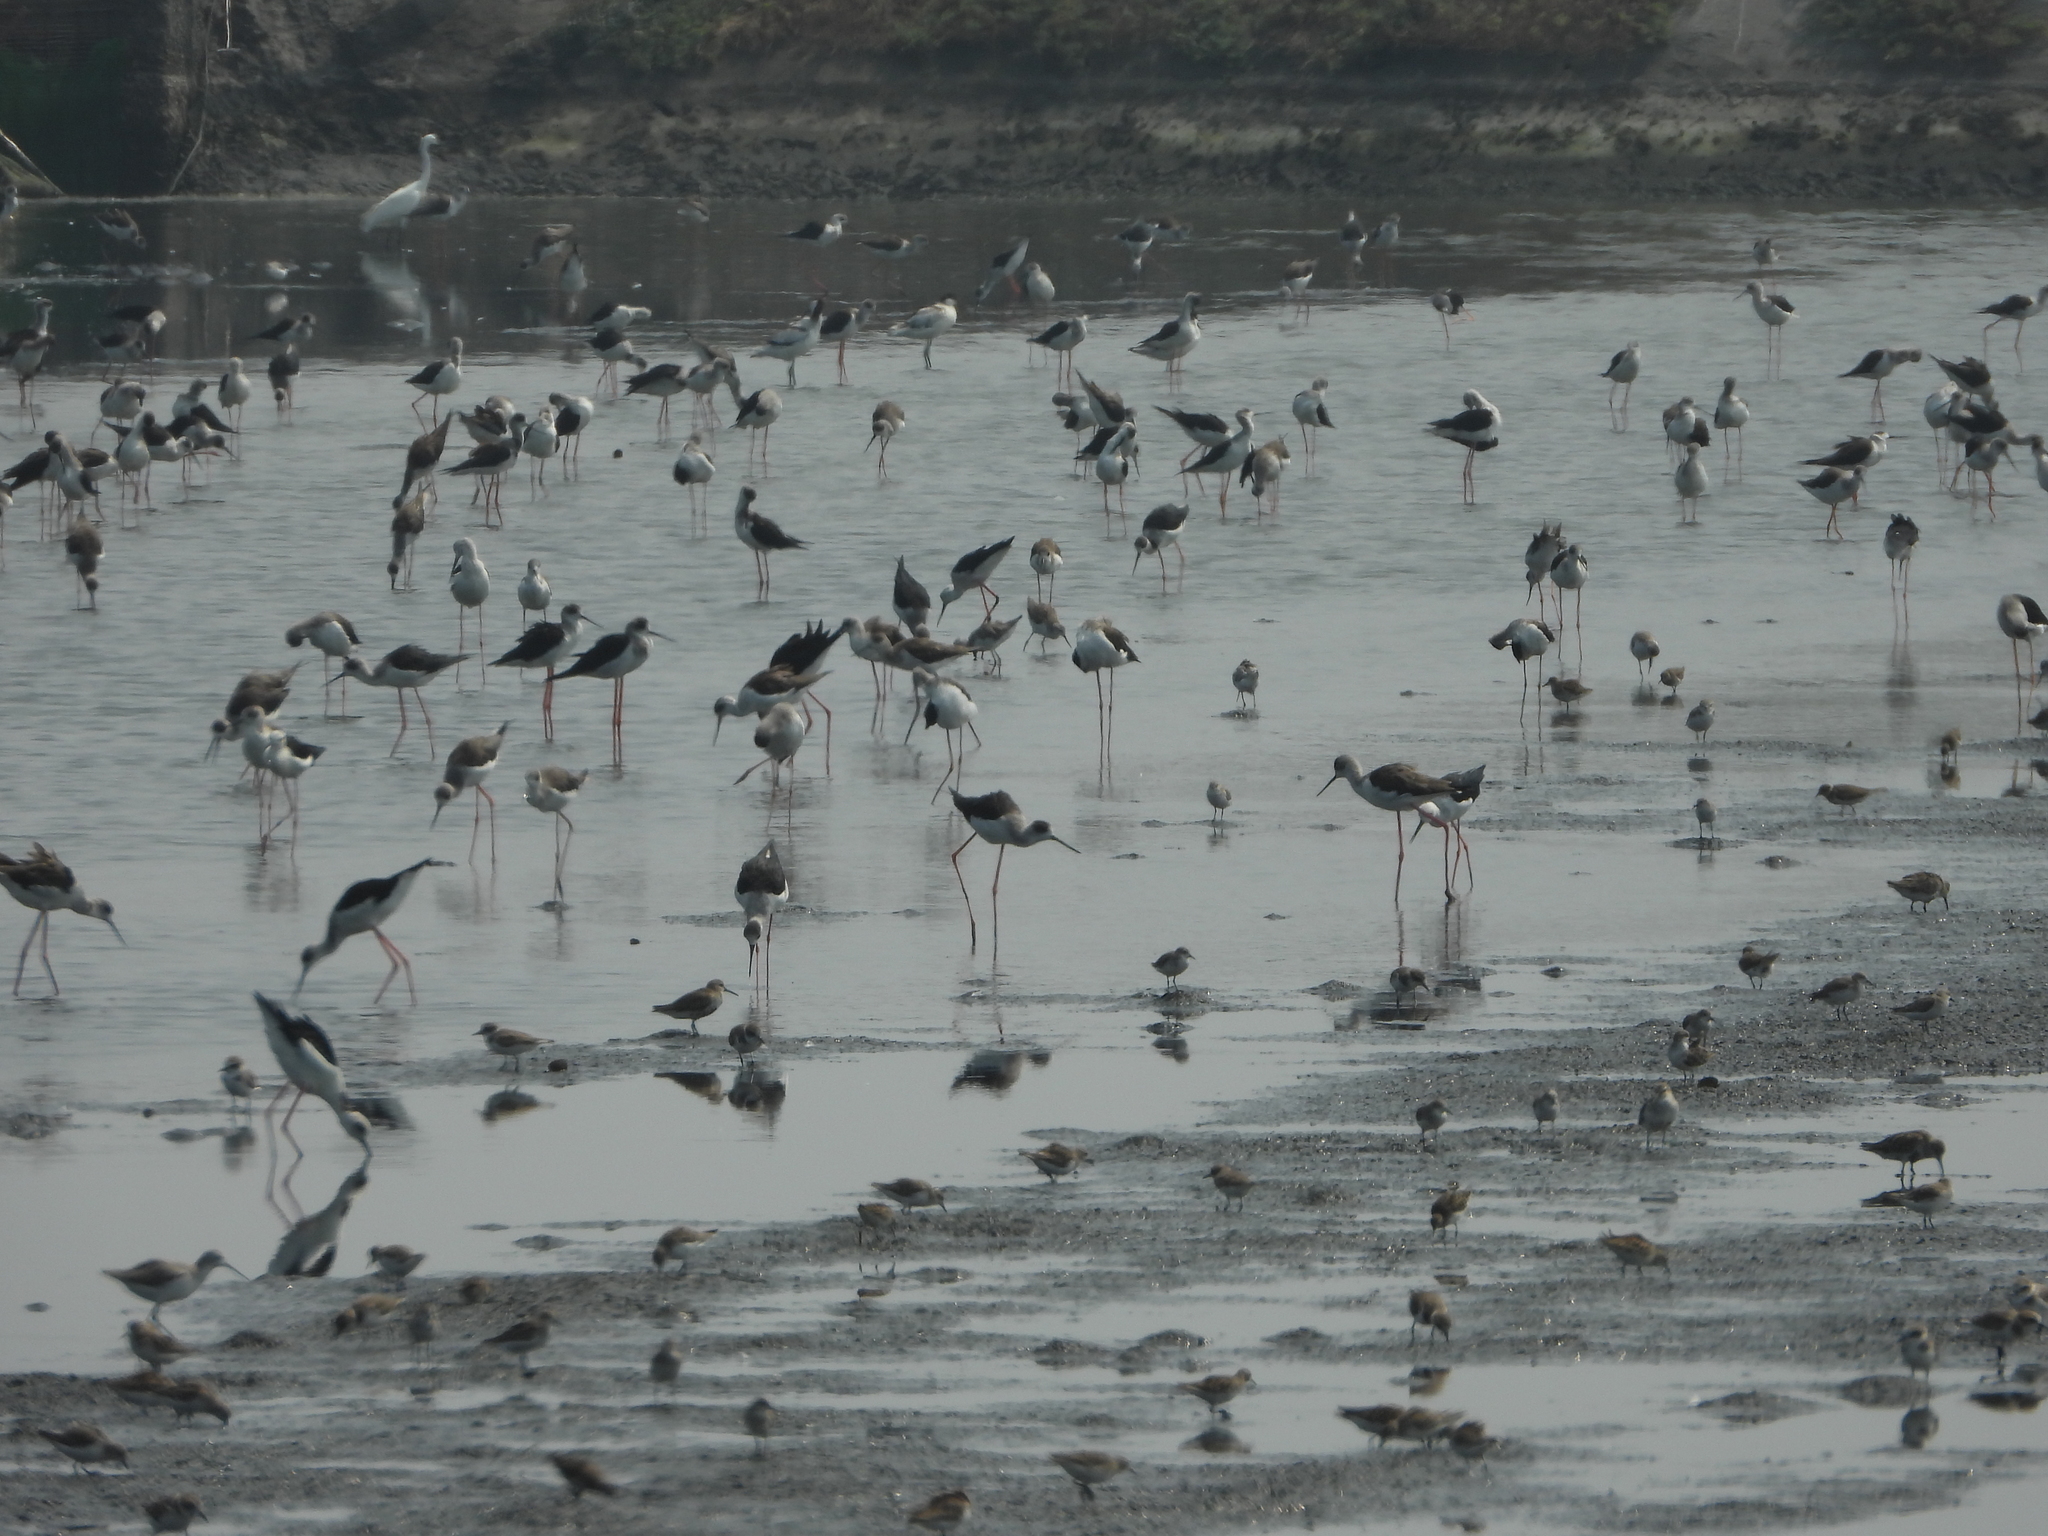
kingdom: Animalia
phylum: Chordata
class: Aves
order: Charadriiformes
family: Recurvirostridae
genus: Himantopus
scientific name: Himantopus himantopus
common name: Black-winged stilt
